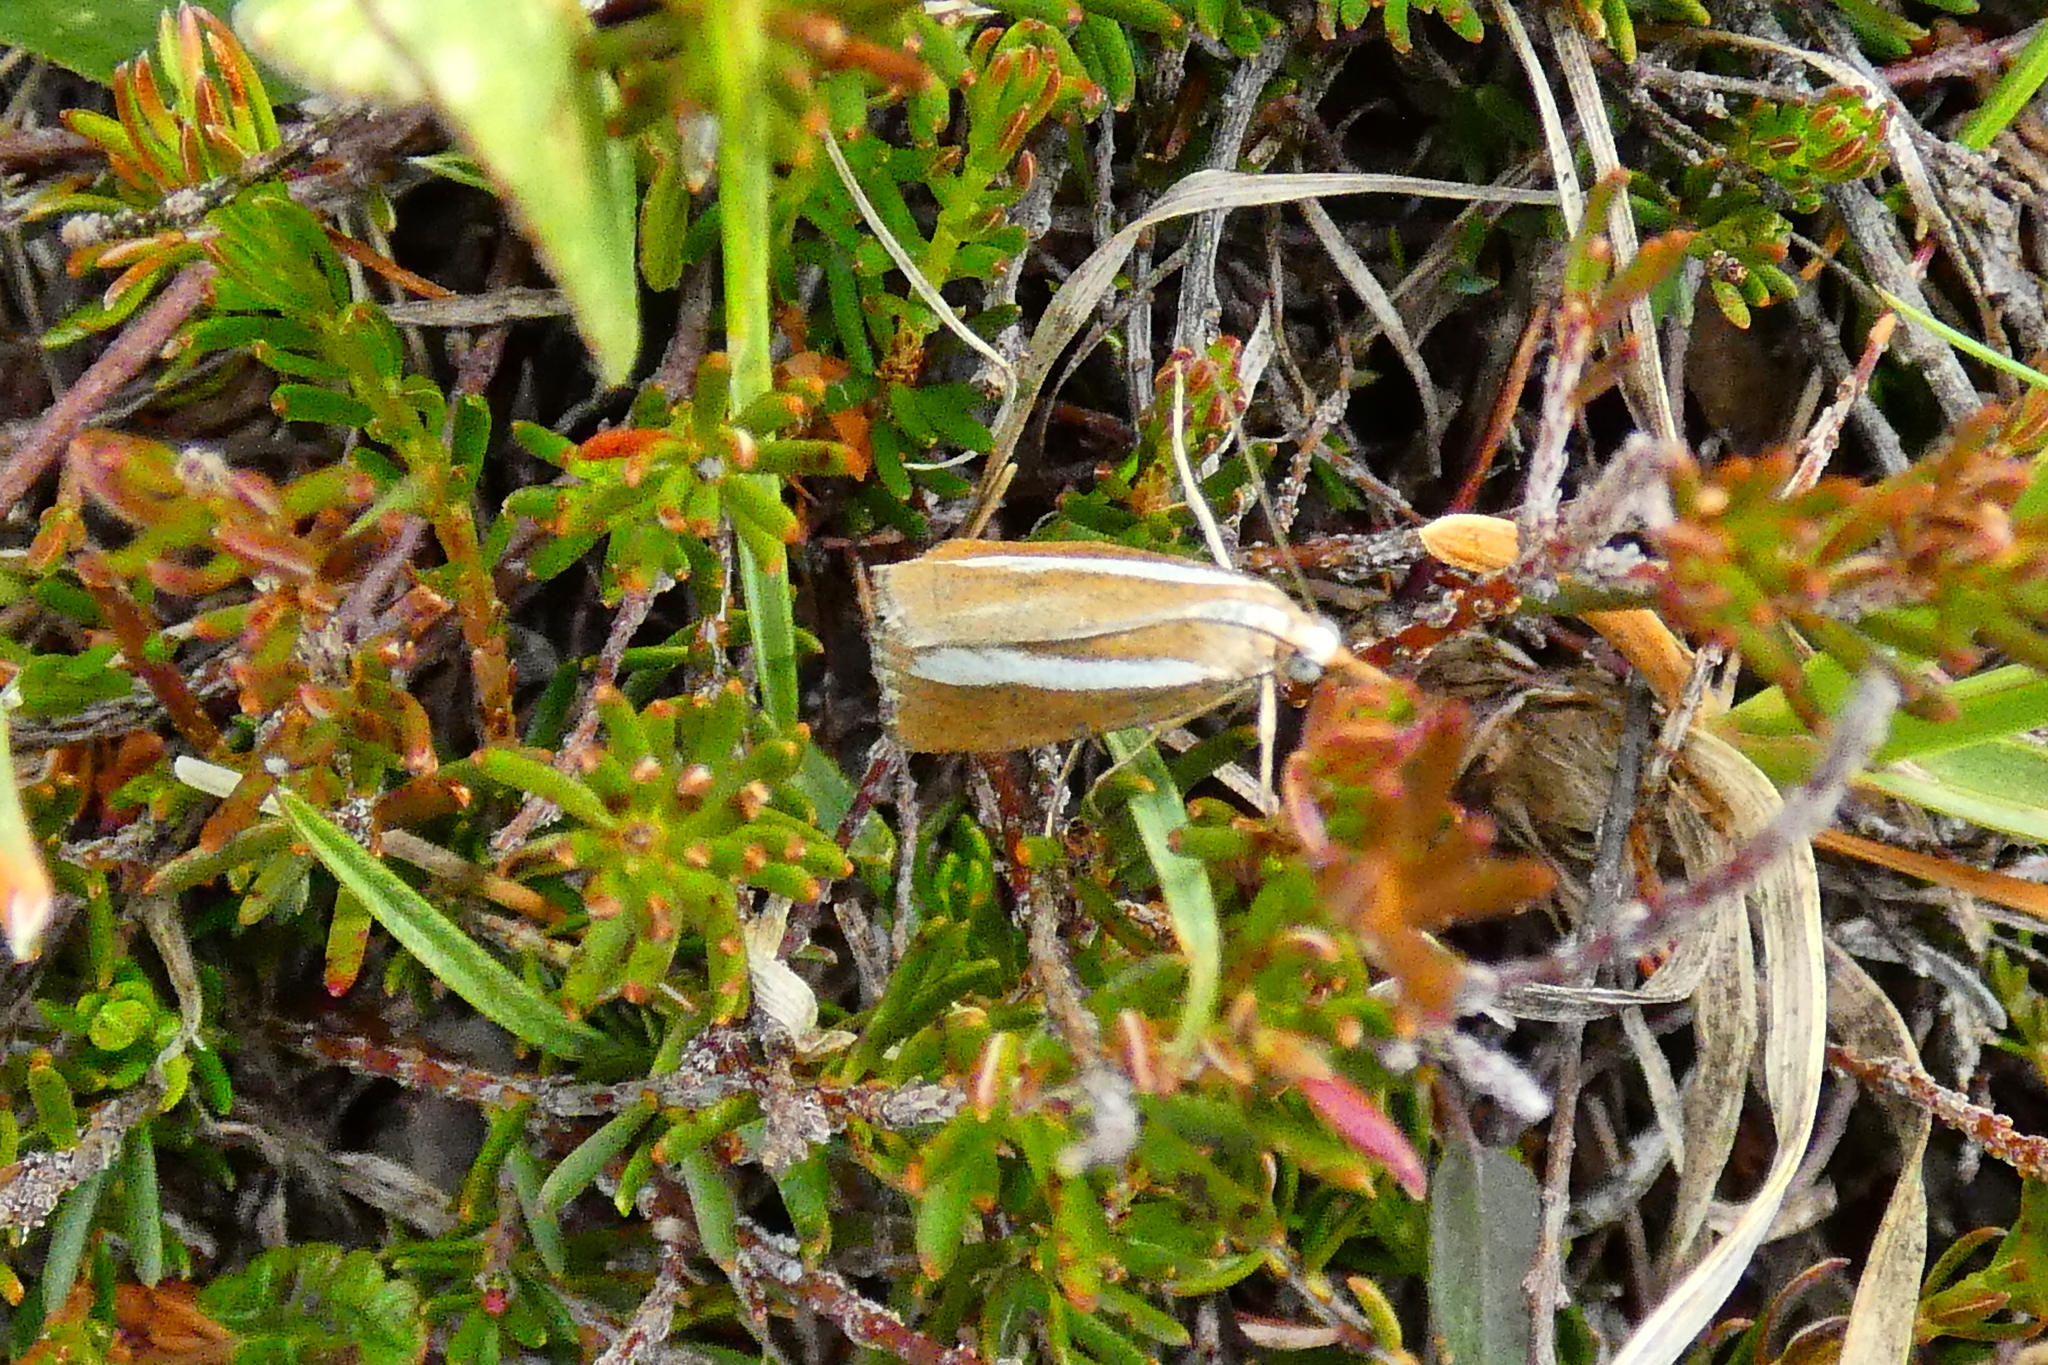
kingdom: Animalia
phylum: Arthropoda
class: Insecta
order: Lepidoptera
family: Crambidae
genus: Catoptria
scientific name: Catoptria pyramidellus
